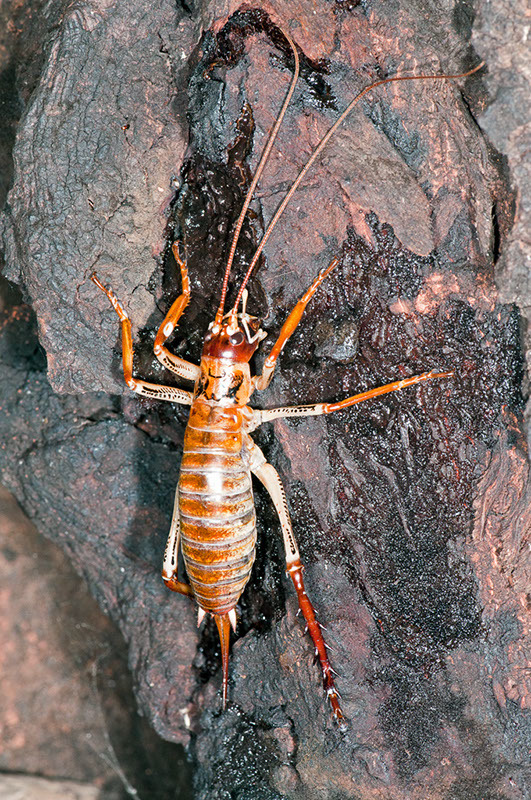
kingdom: Animalia
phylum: Arthropoda
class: Insecta
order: Orthoptera
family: Anostostomatidae
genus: Hemideina
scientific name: Hemideina thoracica
